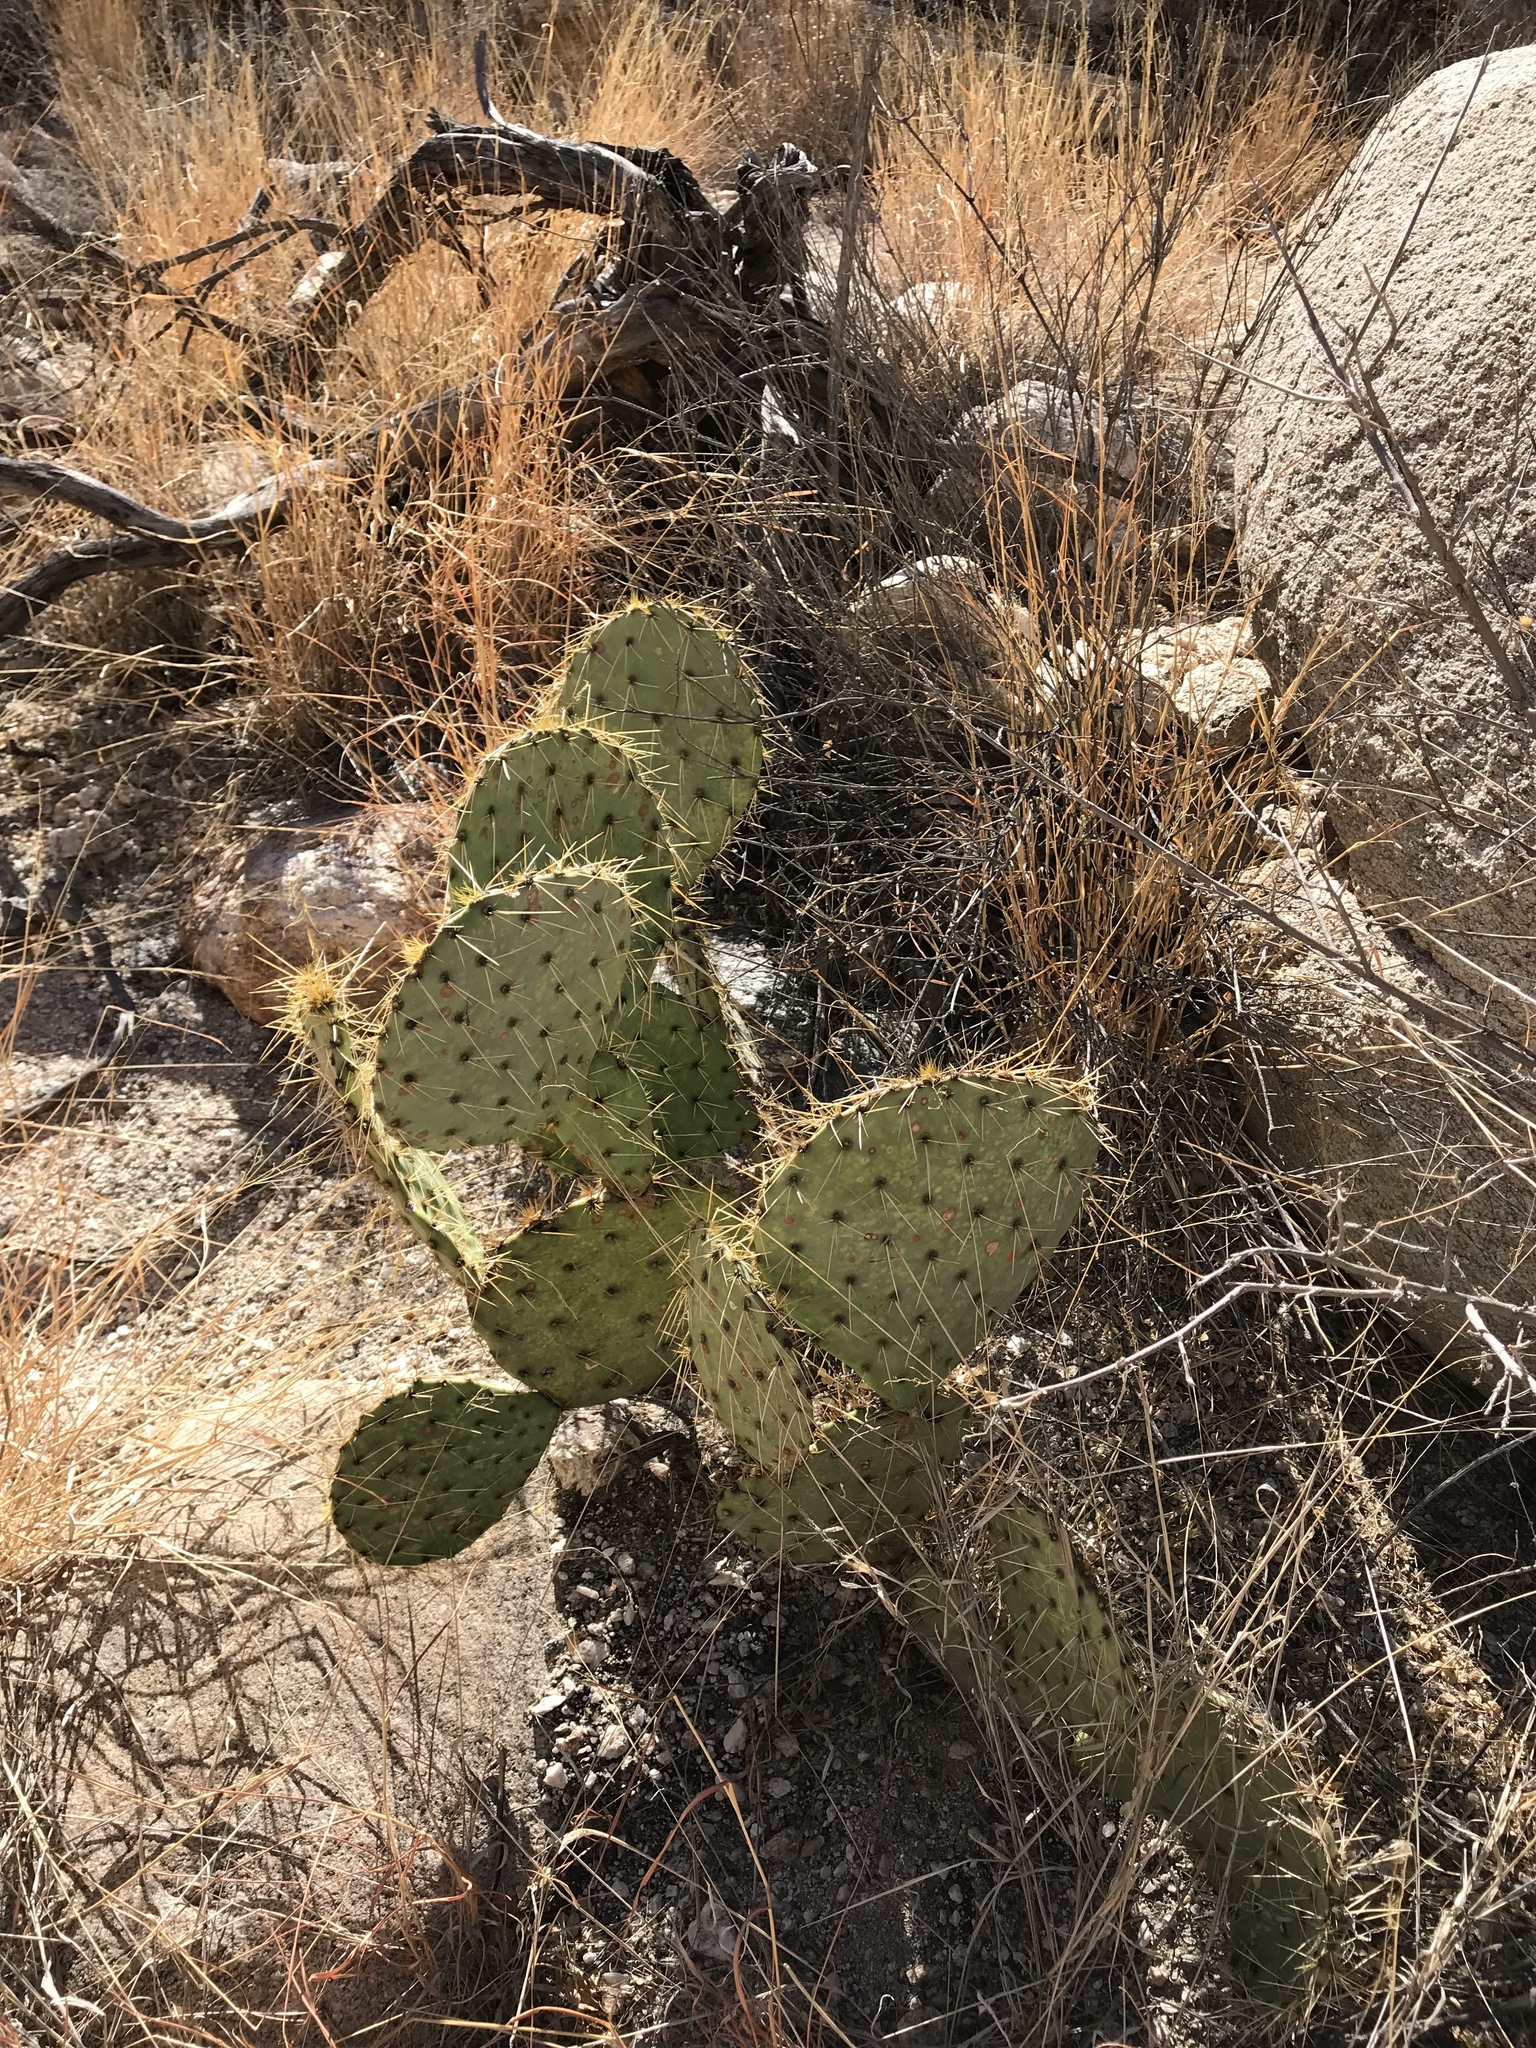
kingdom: Plantae
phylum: Tracheophyta
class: Magnoliopsida
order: Caryophyllales
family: Cactaceae
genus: Opuntia
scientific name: Opuntia engelmannii
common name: Cactus-apple
